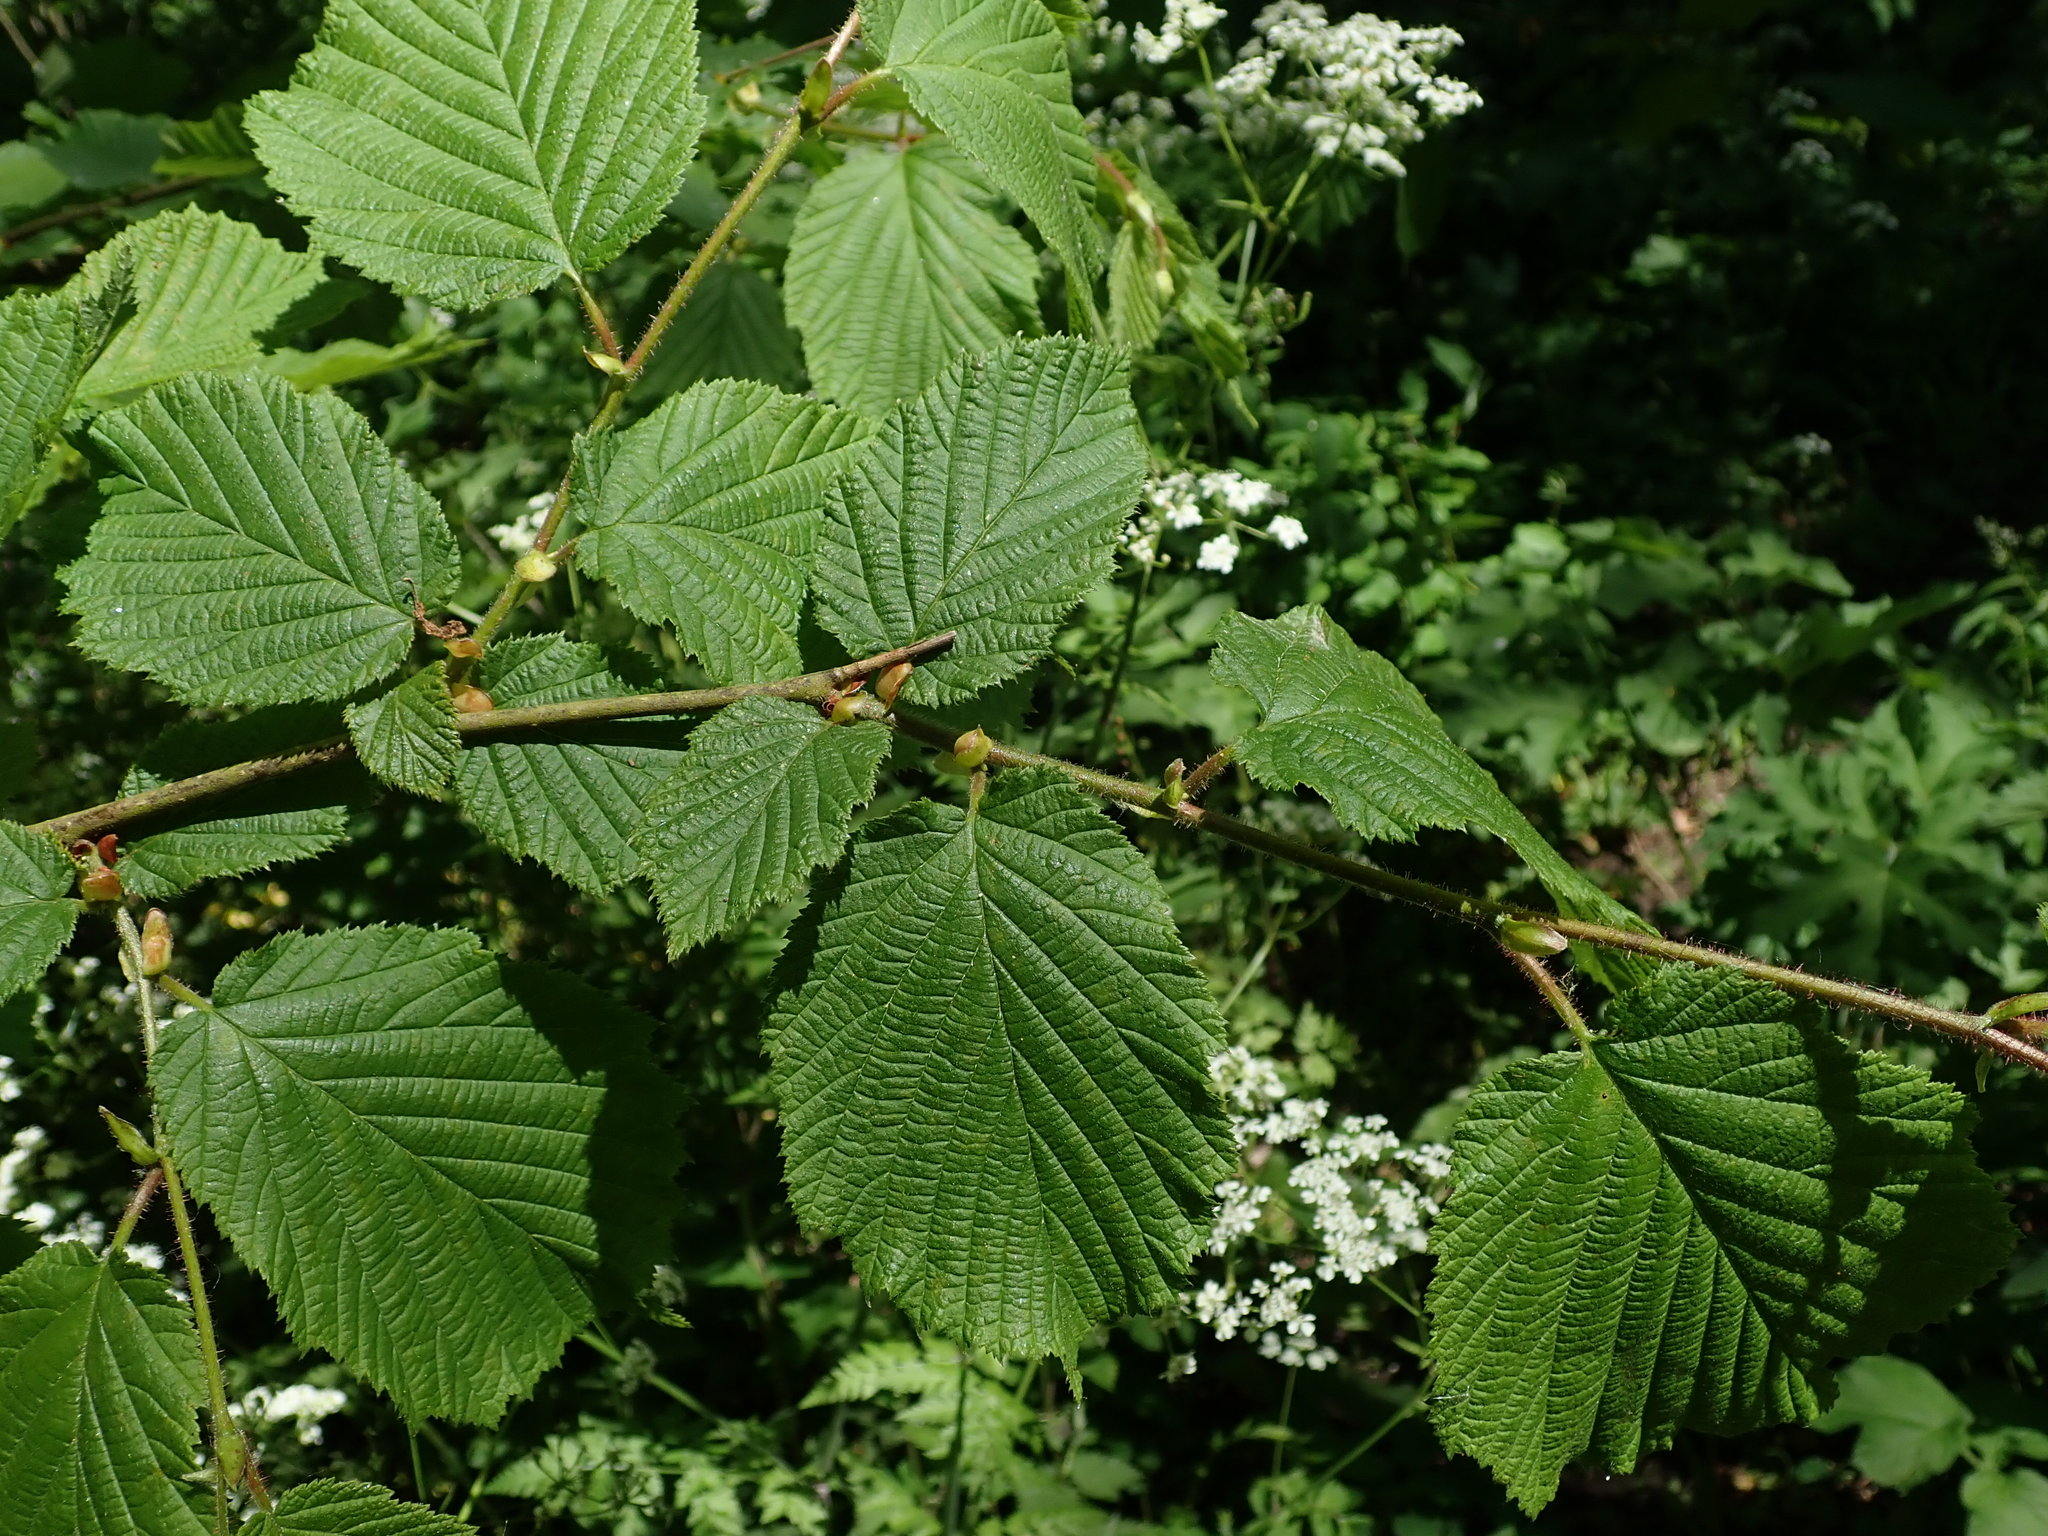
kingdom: Plantae
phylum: Tracheophyta
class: Magnoliopsida
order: Fagales
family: Betulaceae
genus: Corylus
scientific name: Corylus avellana
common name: European hazel
